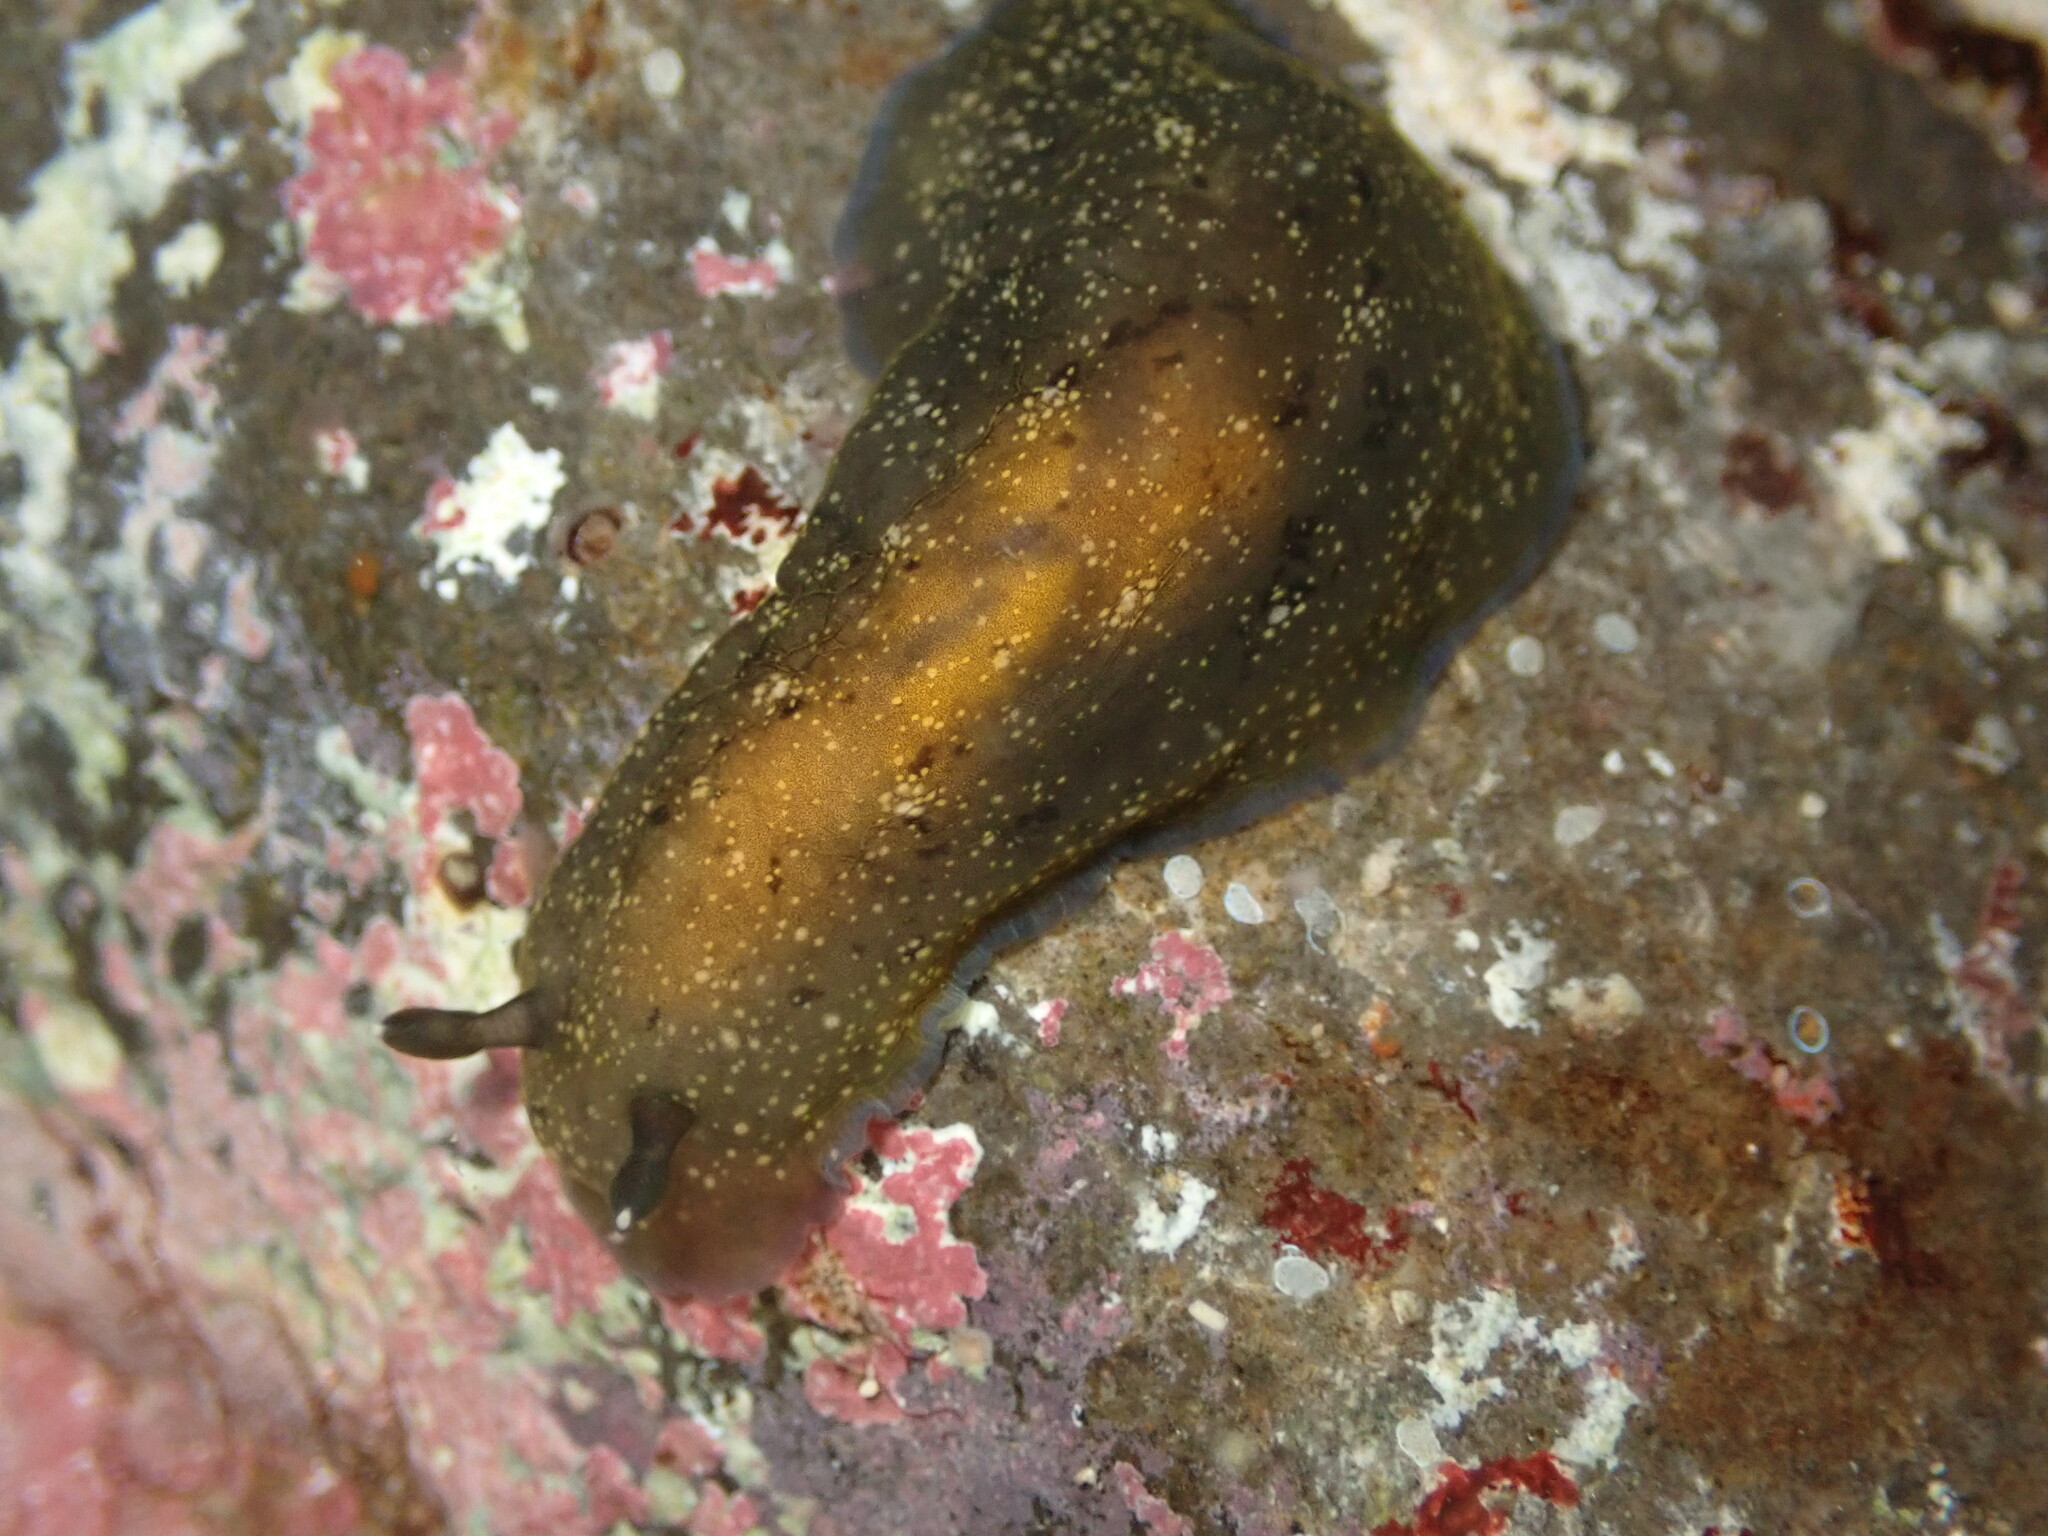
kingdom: Animalia
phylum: Mollusca
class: Gastropoda
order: Nudibranchia
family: Dendrodorididae
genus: Dendrodoris
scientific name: Dendrodoris nigra
